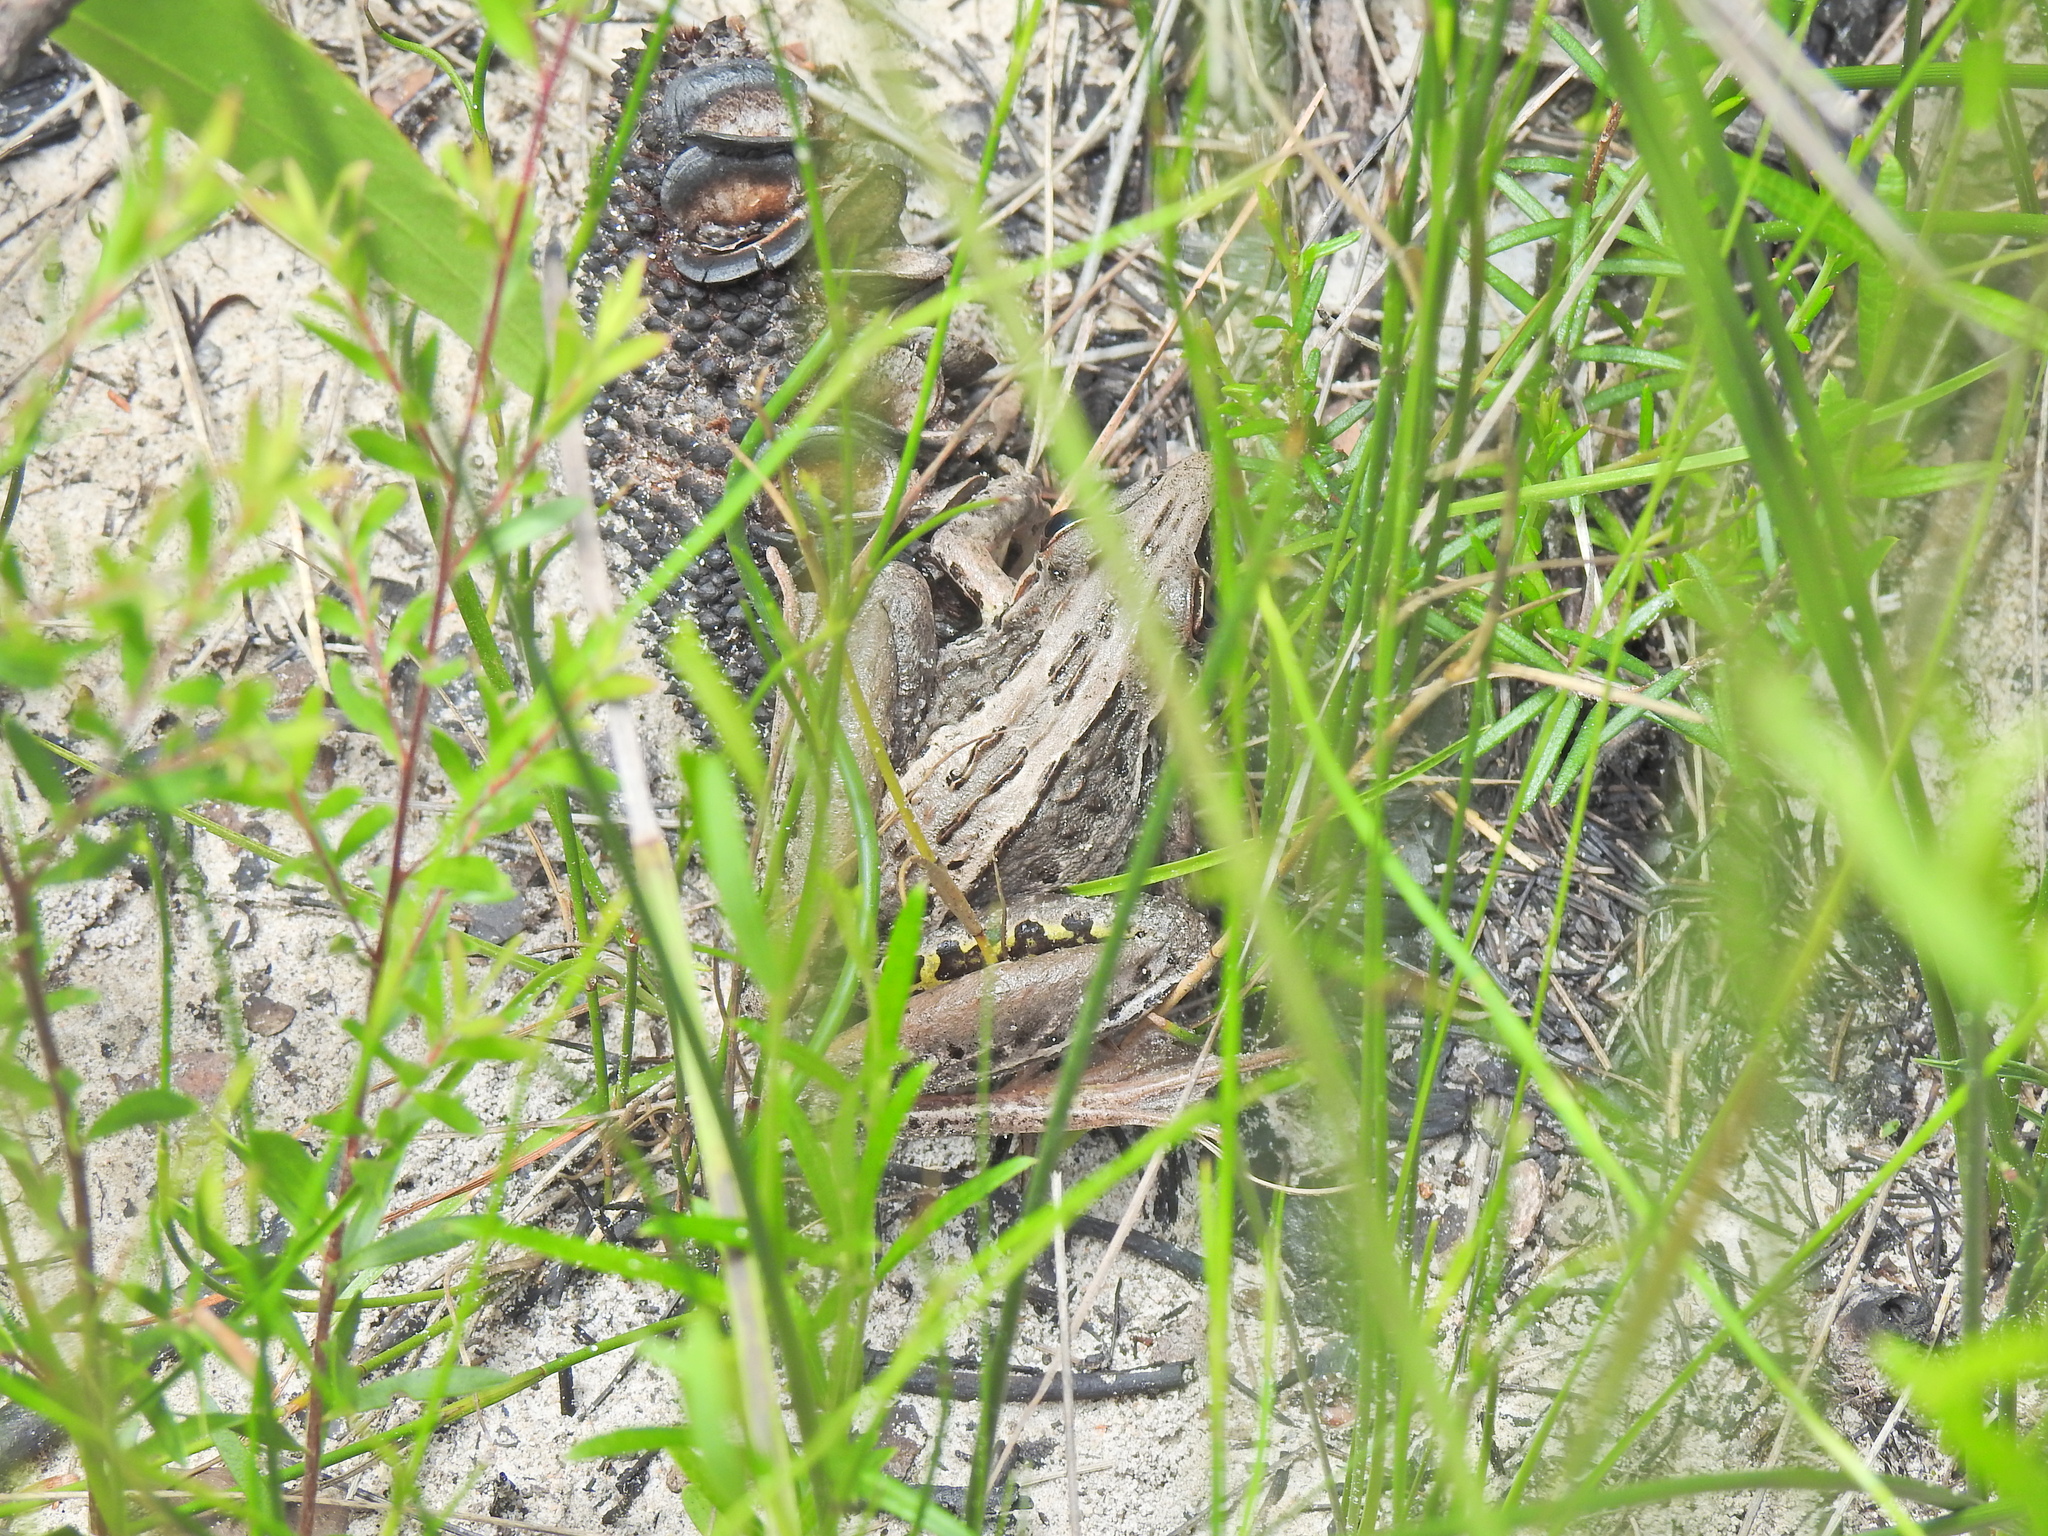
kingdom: Animalia
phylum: Chordata
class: Amphibia
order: Anura
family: Pelodryadidae
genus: Litoria
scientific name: Litoria nasuta
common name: Rocket frog
